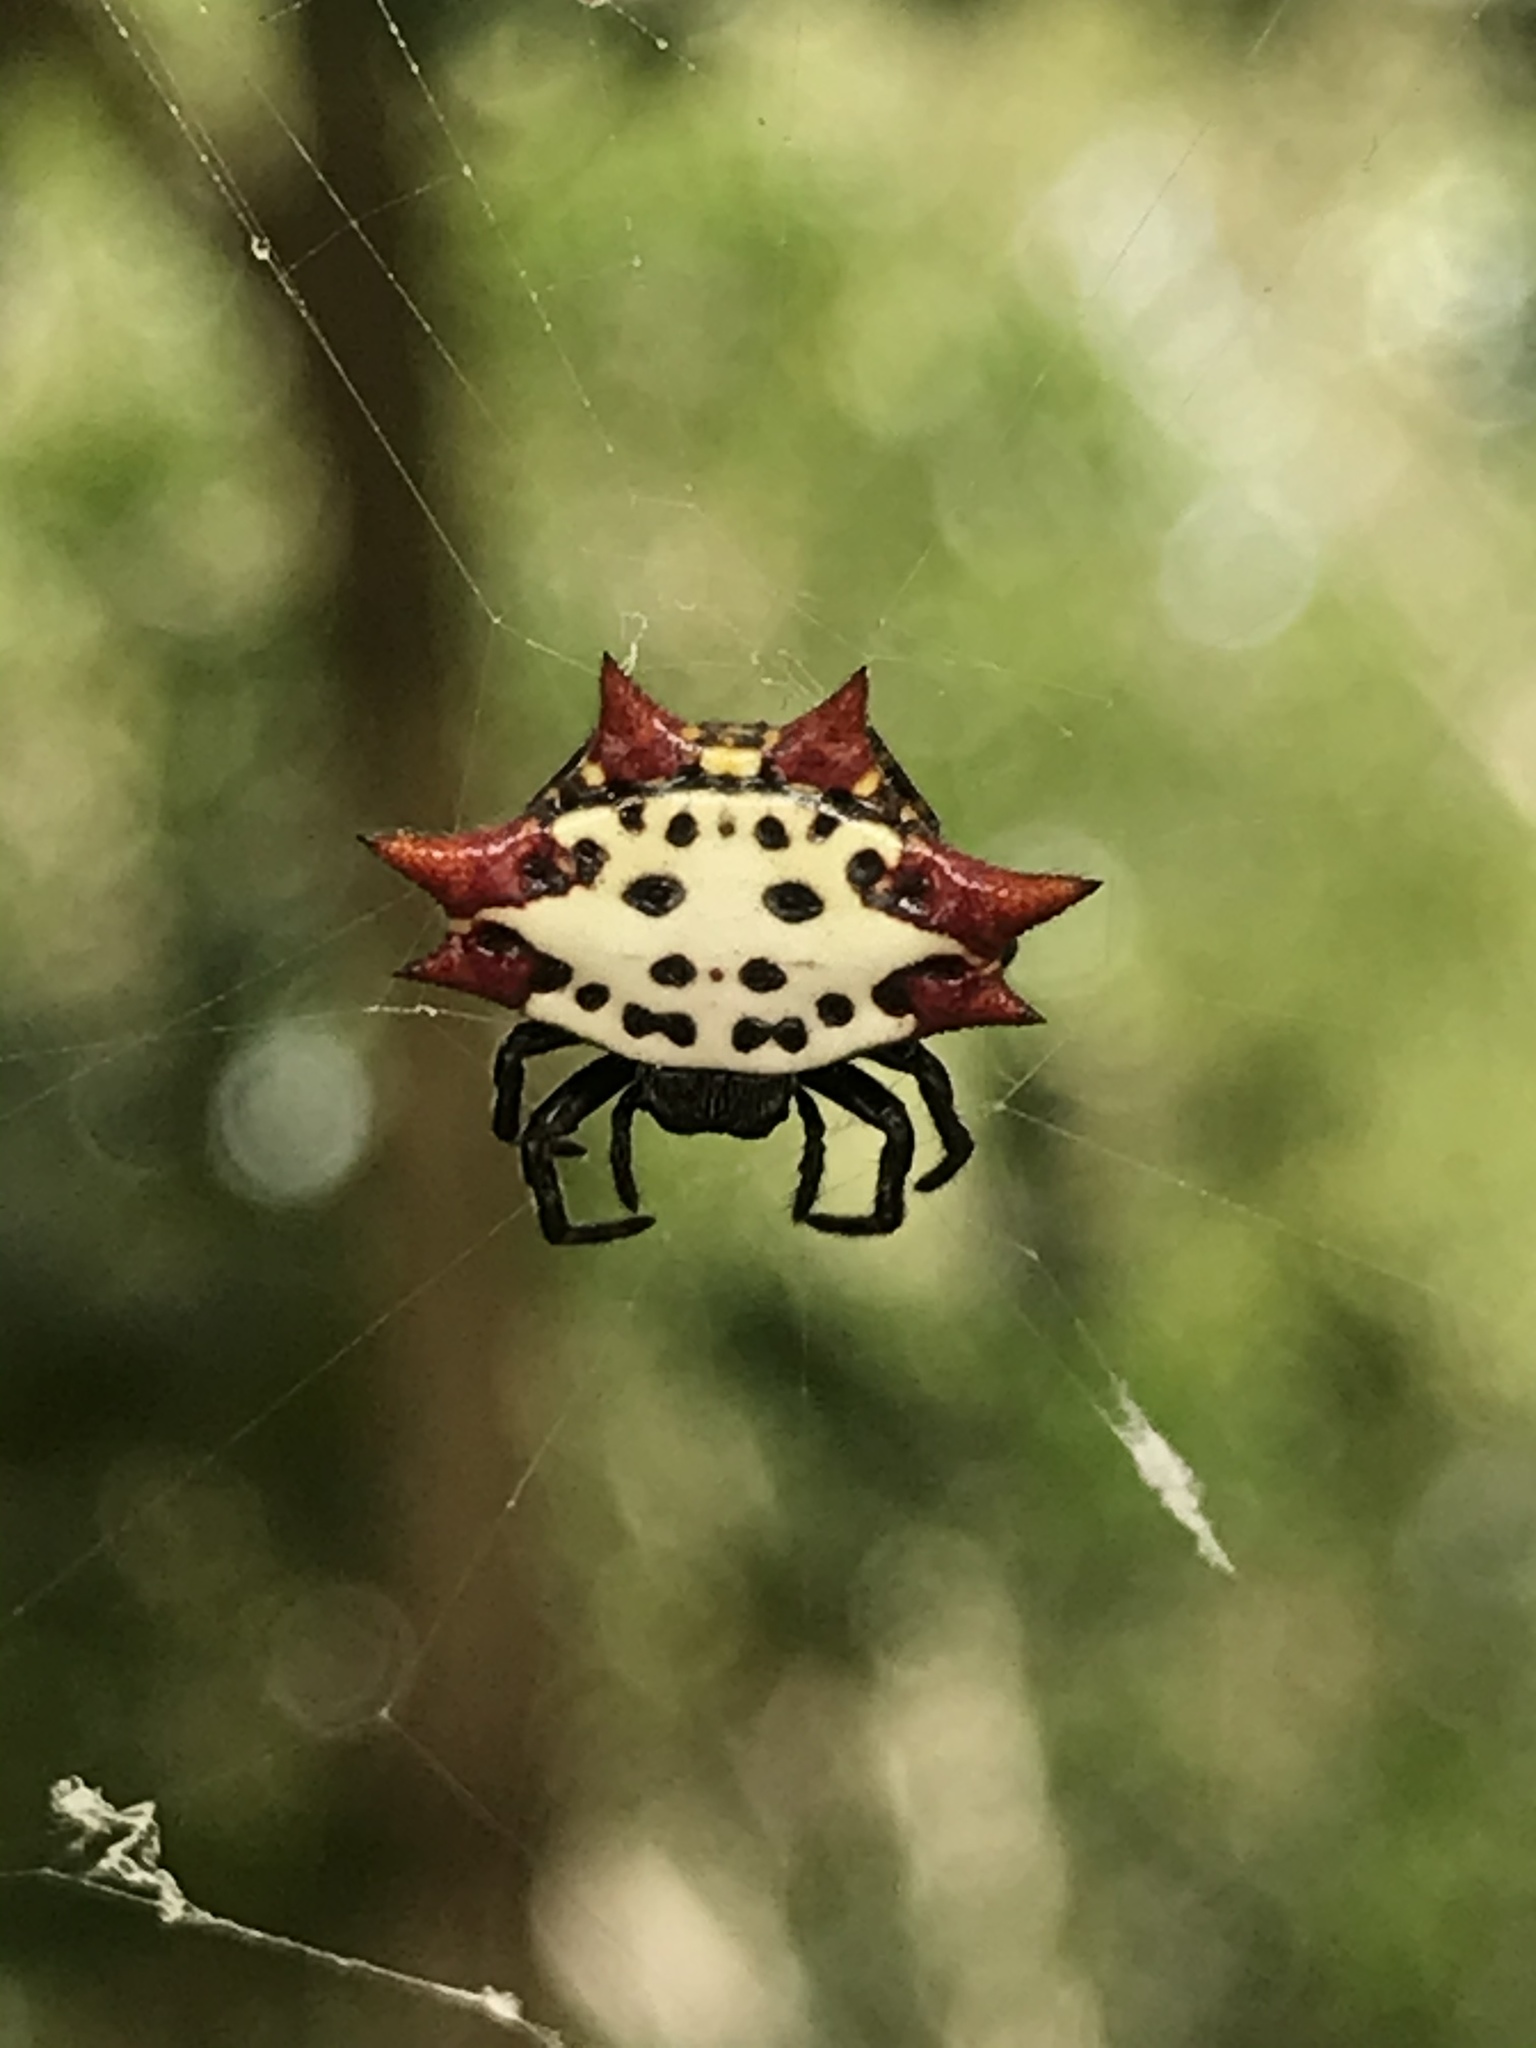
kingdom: Animalia
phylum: Arthropoda
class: Arachnida
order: Araneae
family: Araneidae
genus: Gasteracantha
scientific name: Gasteracantha cancriformis
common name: Orb weavers
